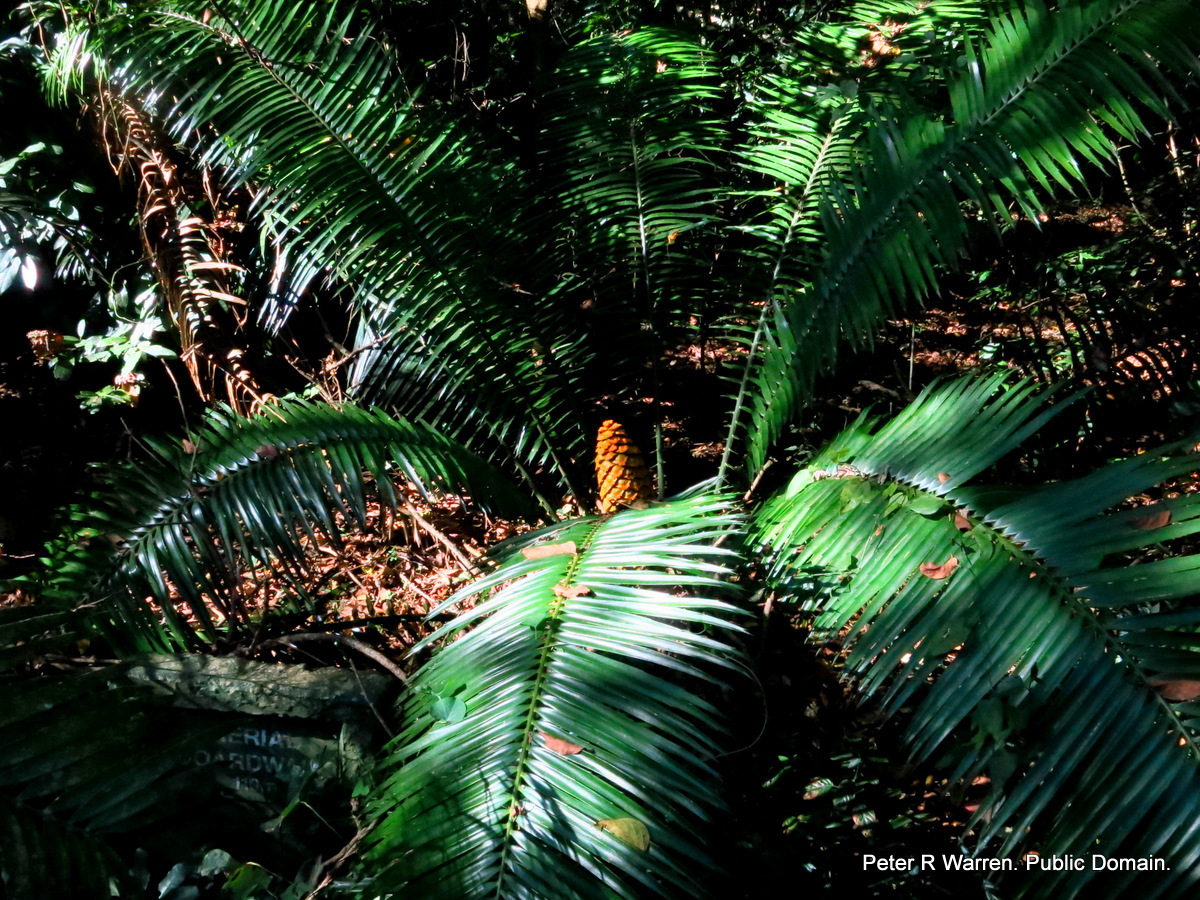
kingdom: Plantae
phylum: Tracheophyta
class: Cycadopsida
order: Cycadales
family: Zamiaceae
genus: Encephalartos
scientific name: Encephalartos villosus
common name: Poor man's cycad
